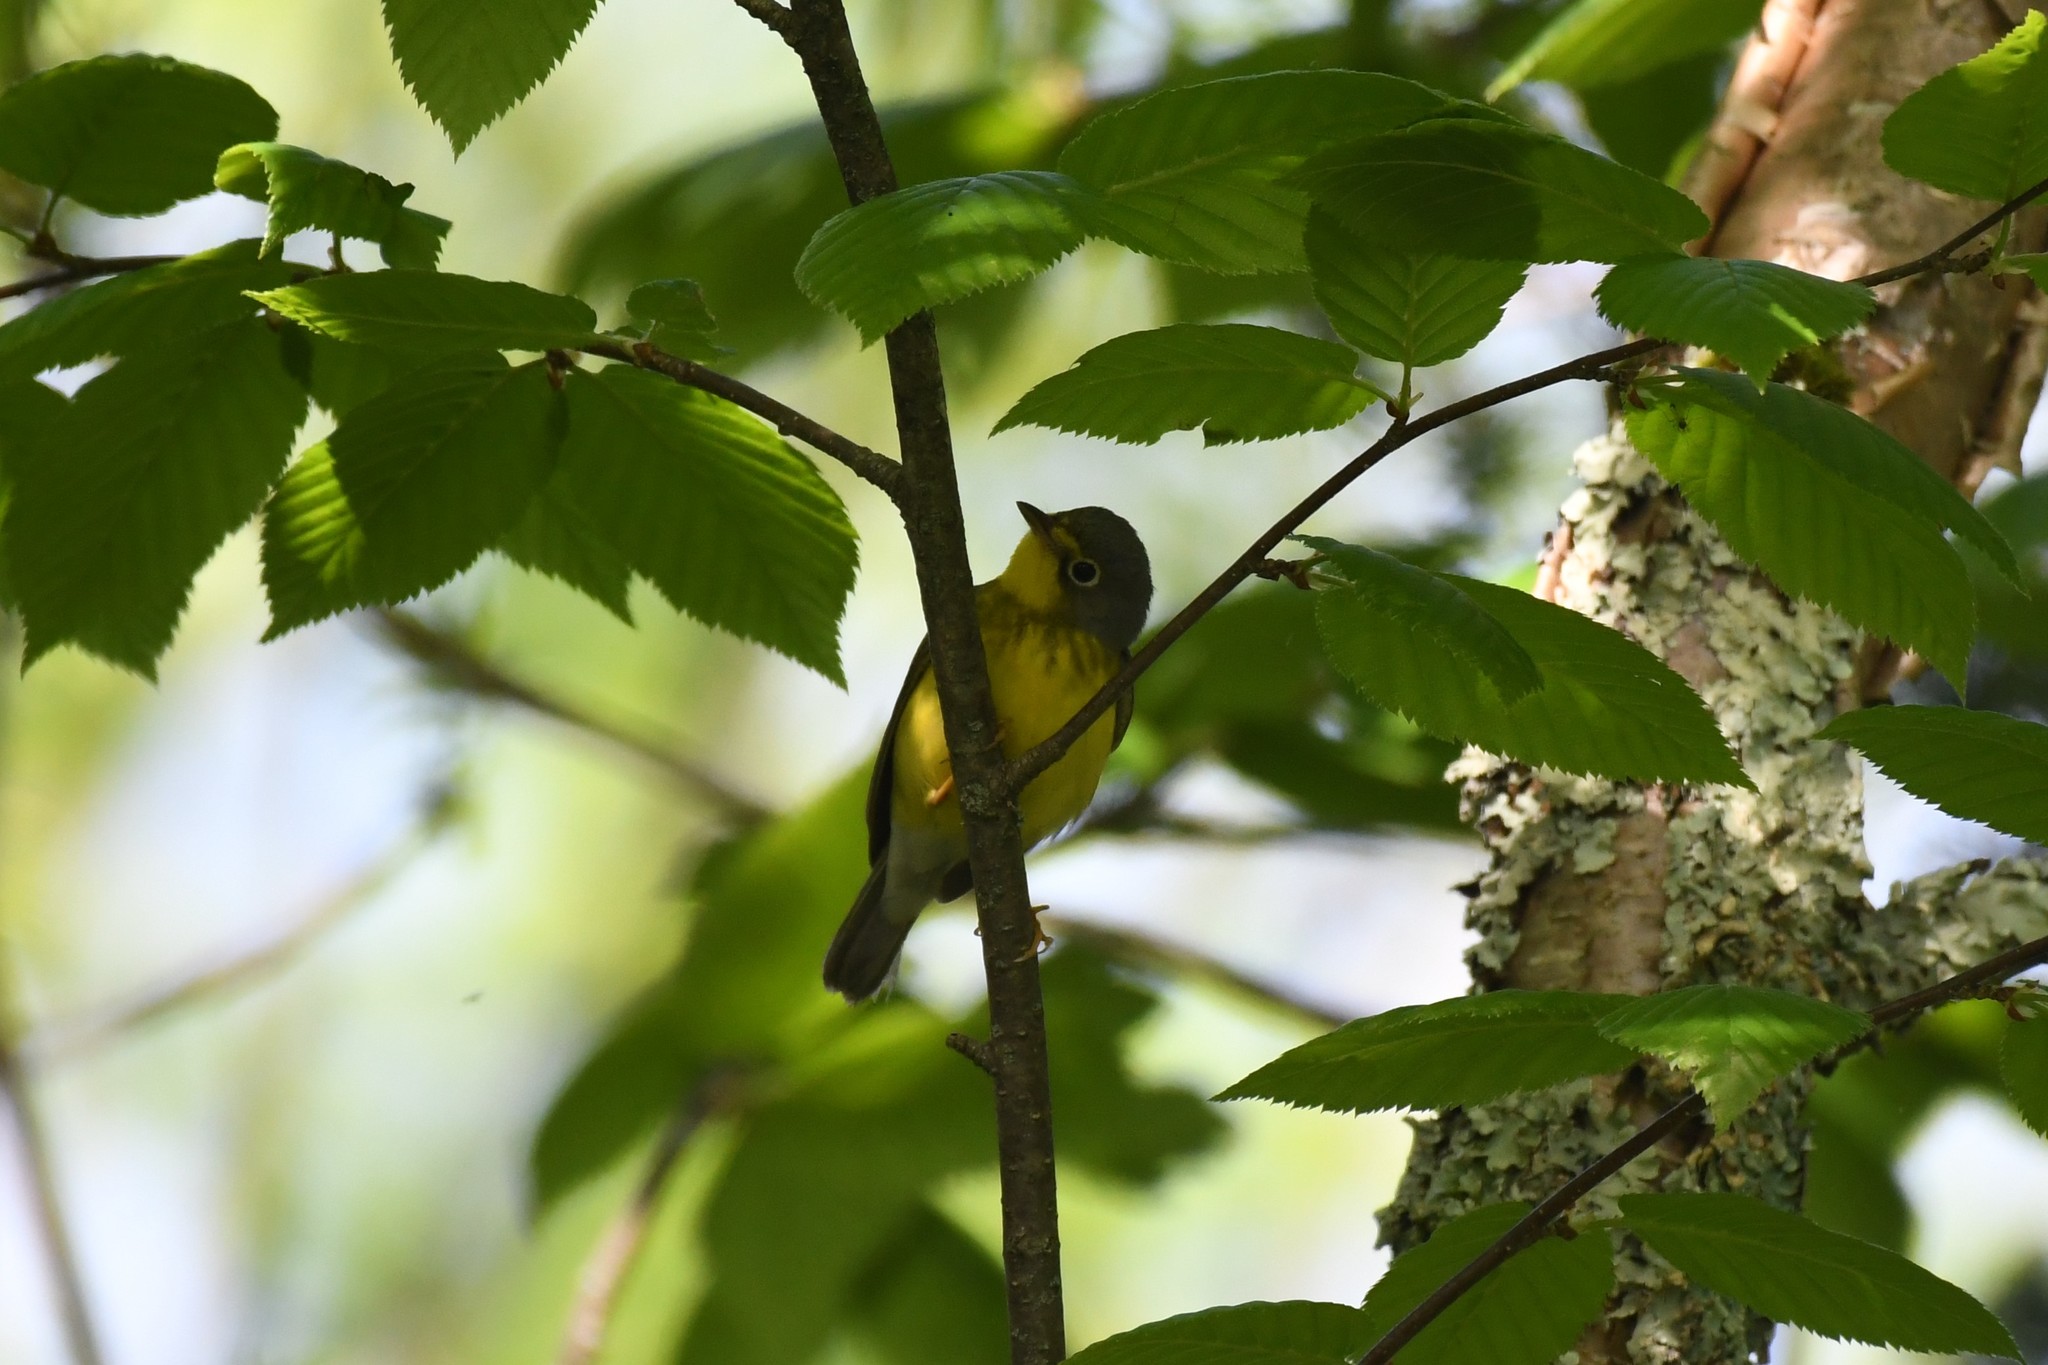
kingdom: Animalia
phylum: Chordata
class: Aves
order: Passeriformes
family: Parulidae
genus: Cardellina
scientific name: Cardellina canadensis
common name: Canada warbler
